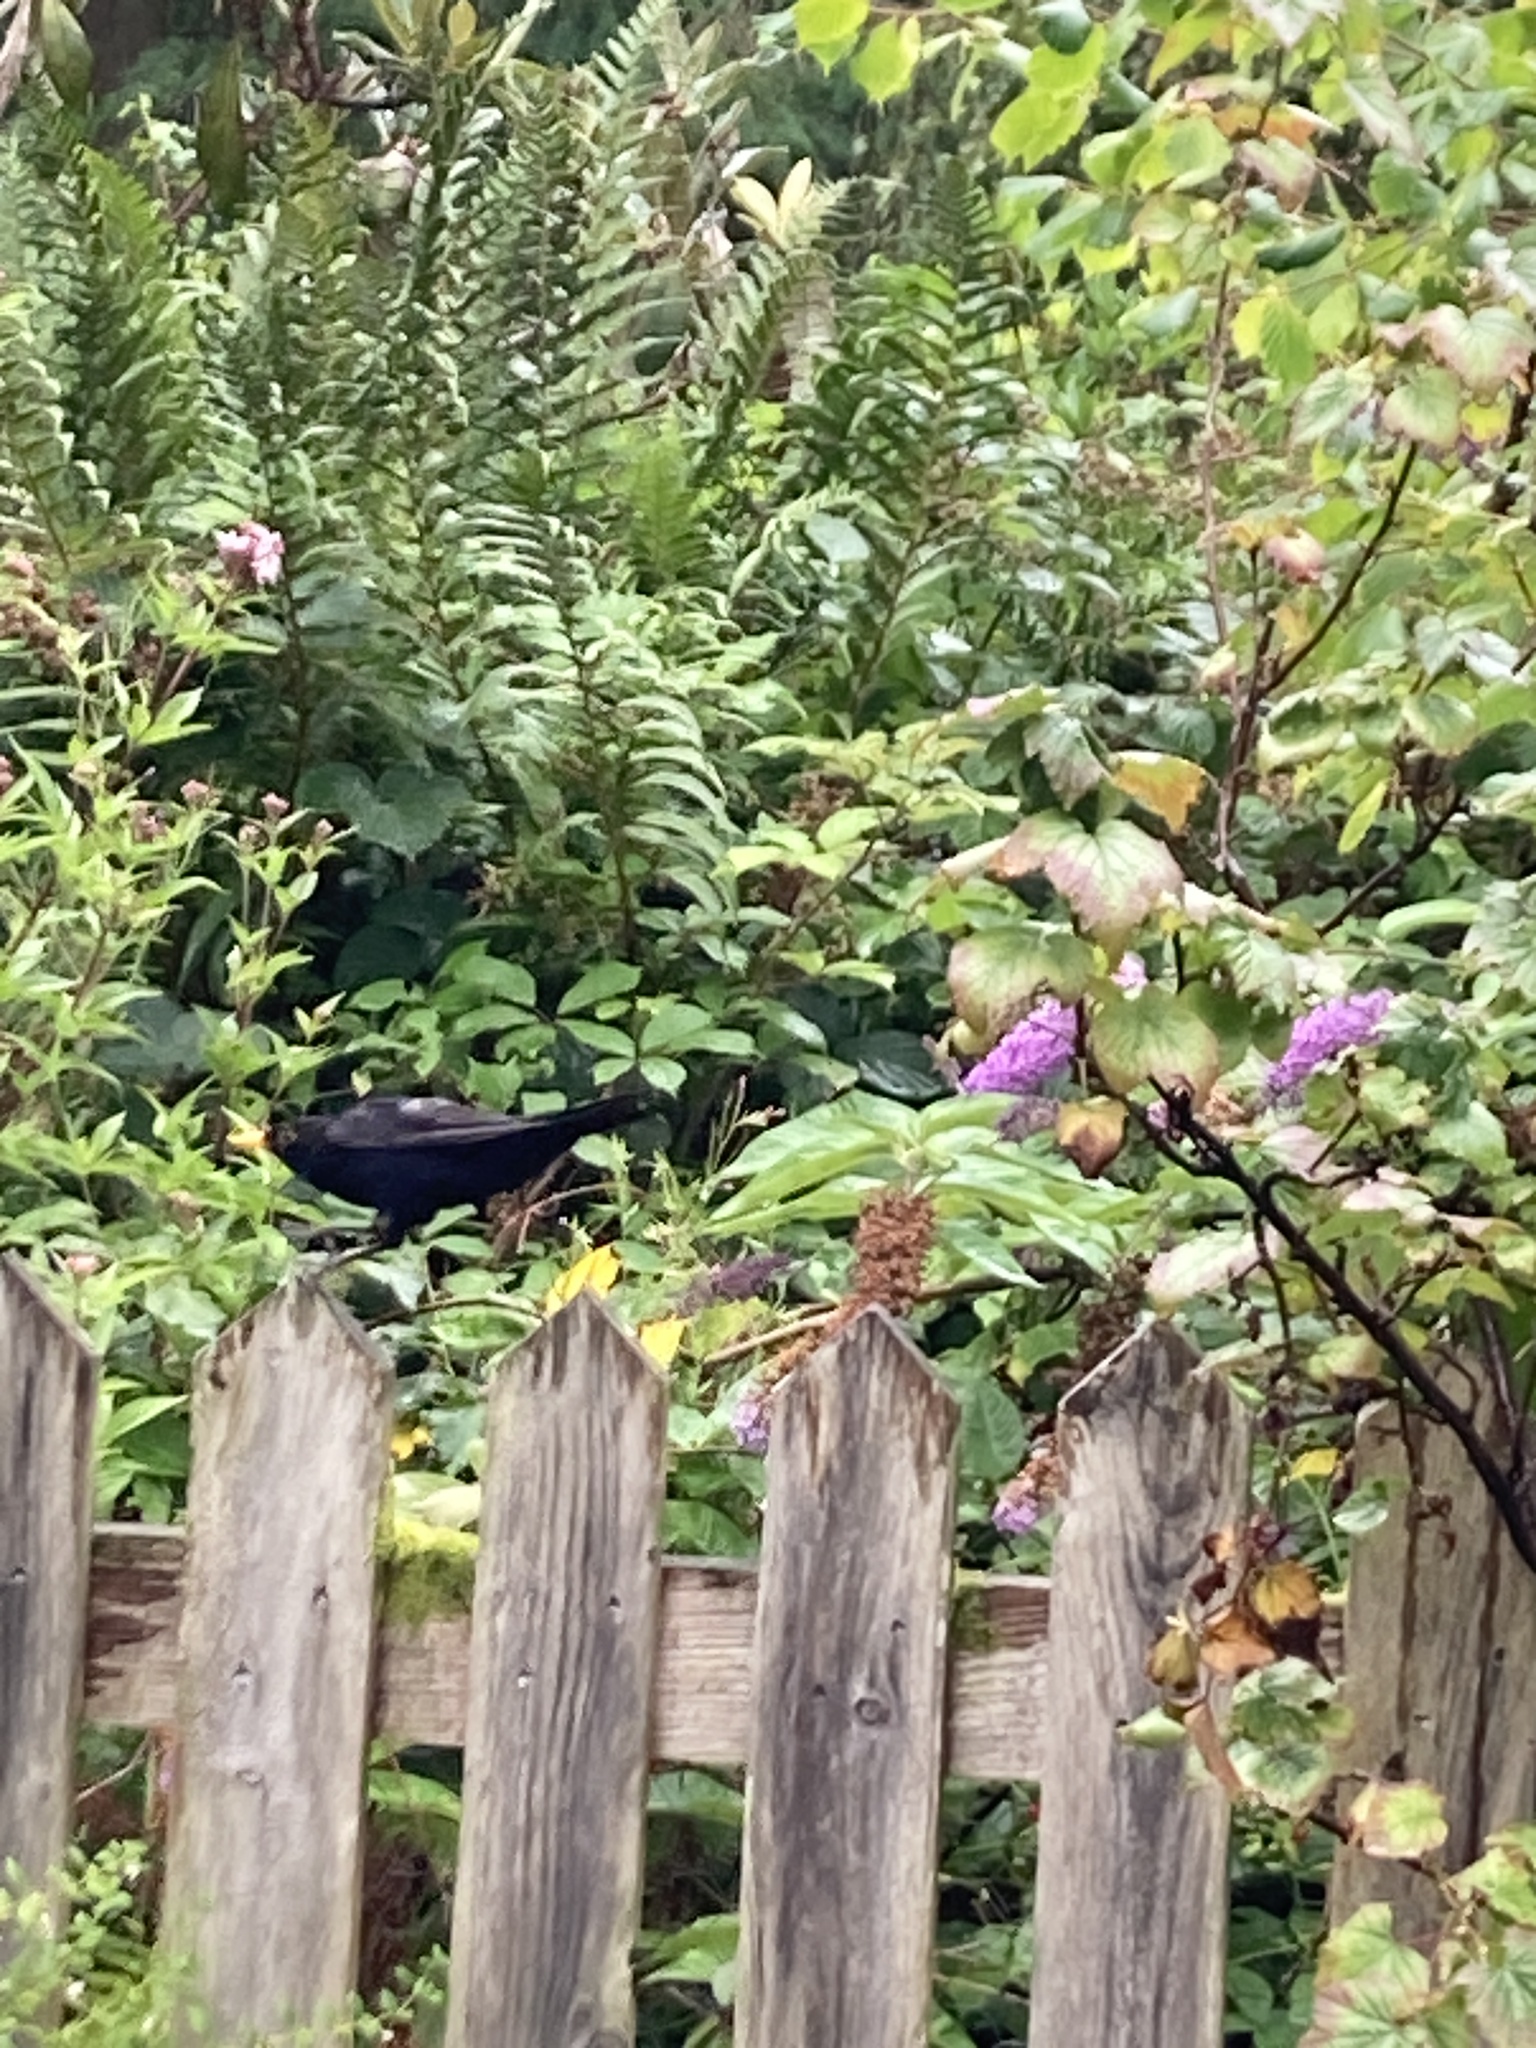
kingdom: Animalia
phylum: Chordata
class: Aves
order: Passeriformes
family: Turdidae
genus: Turdus
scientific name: Turdus merula
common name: Common blackbird
